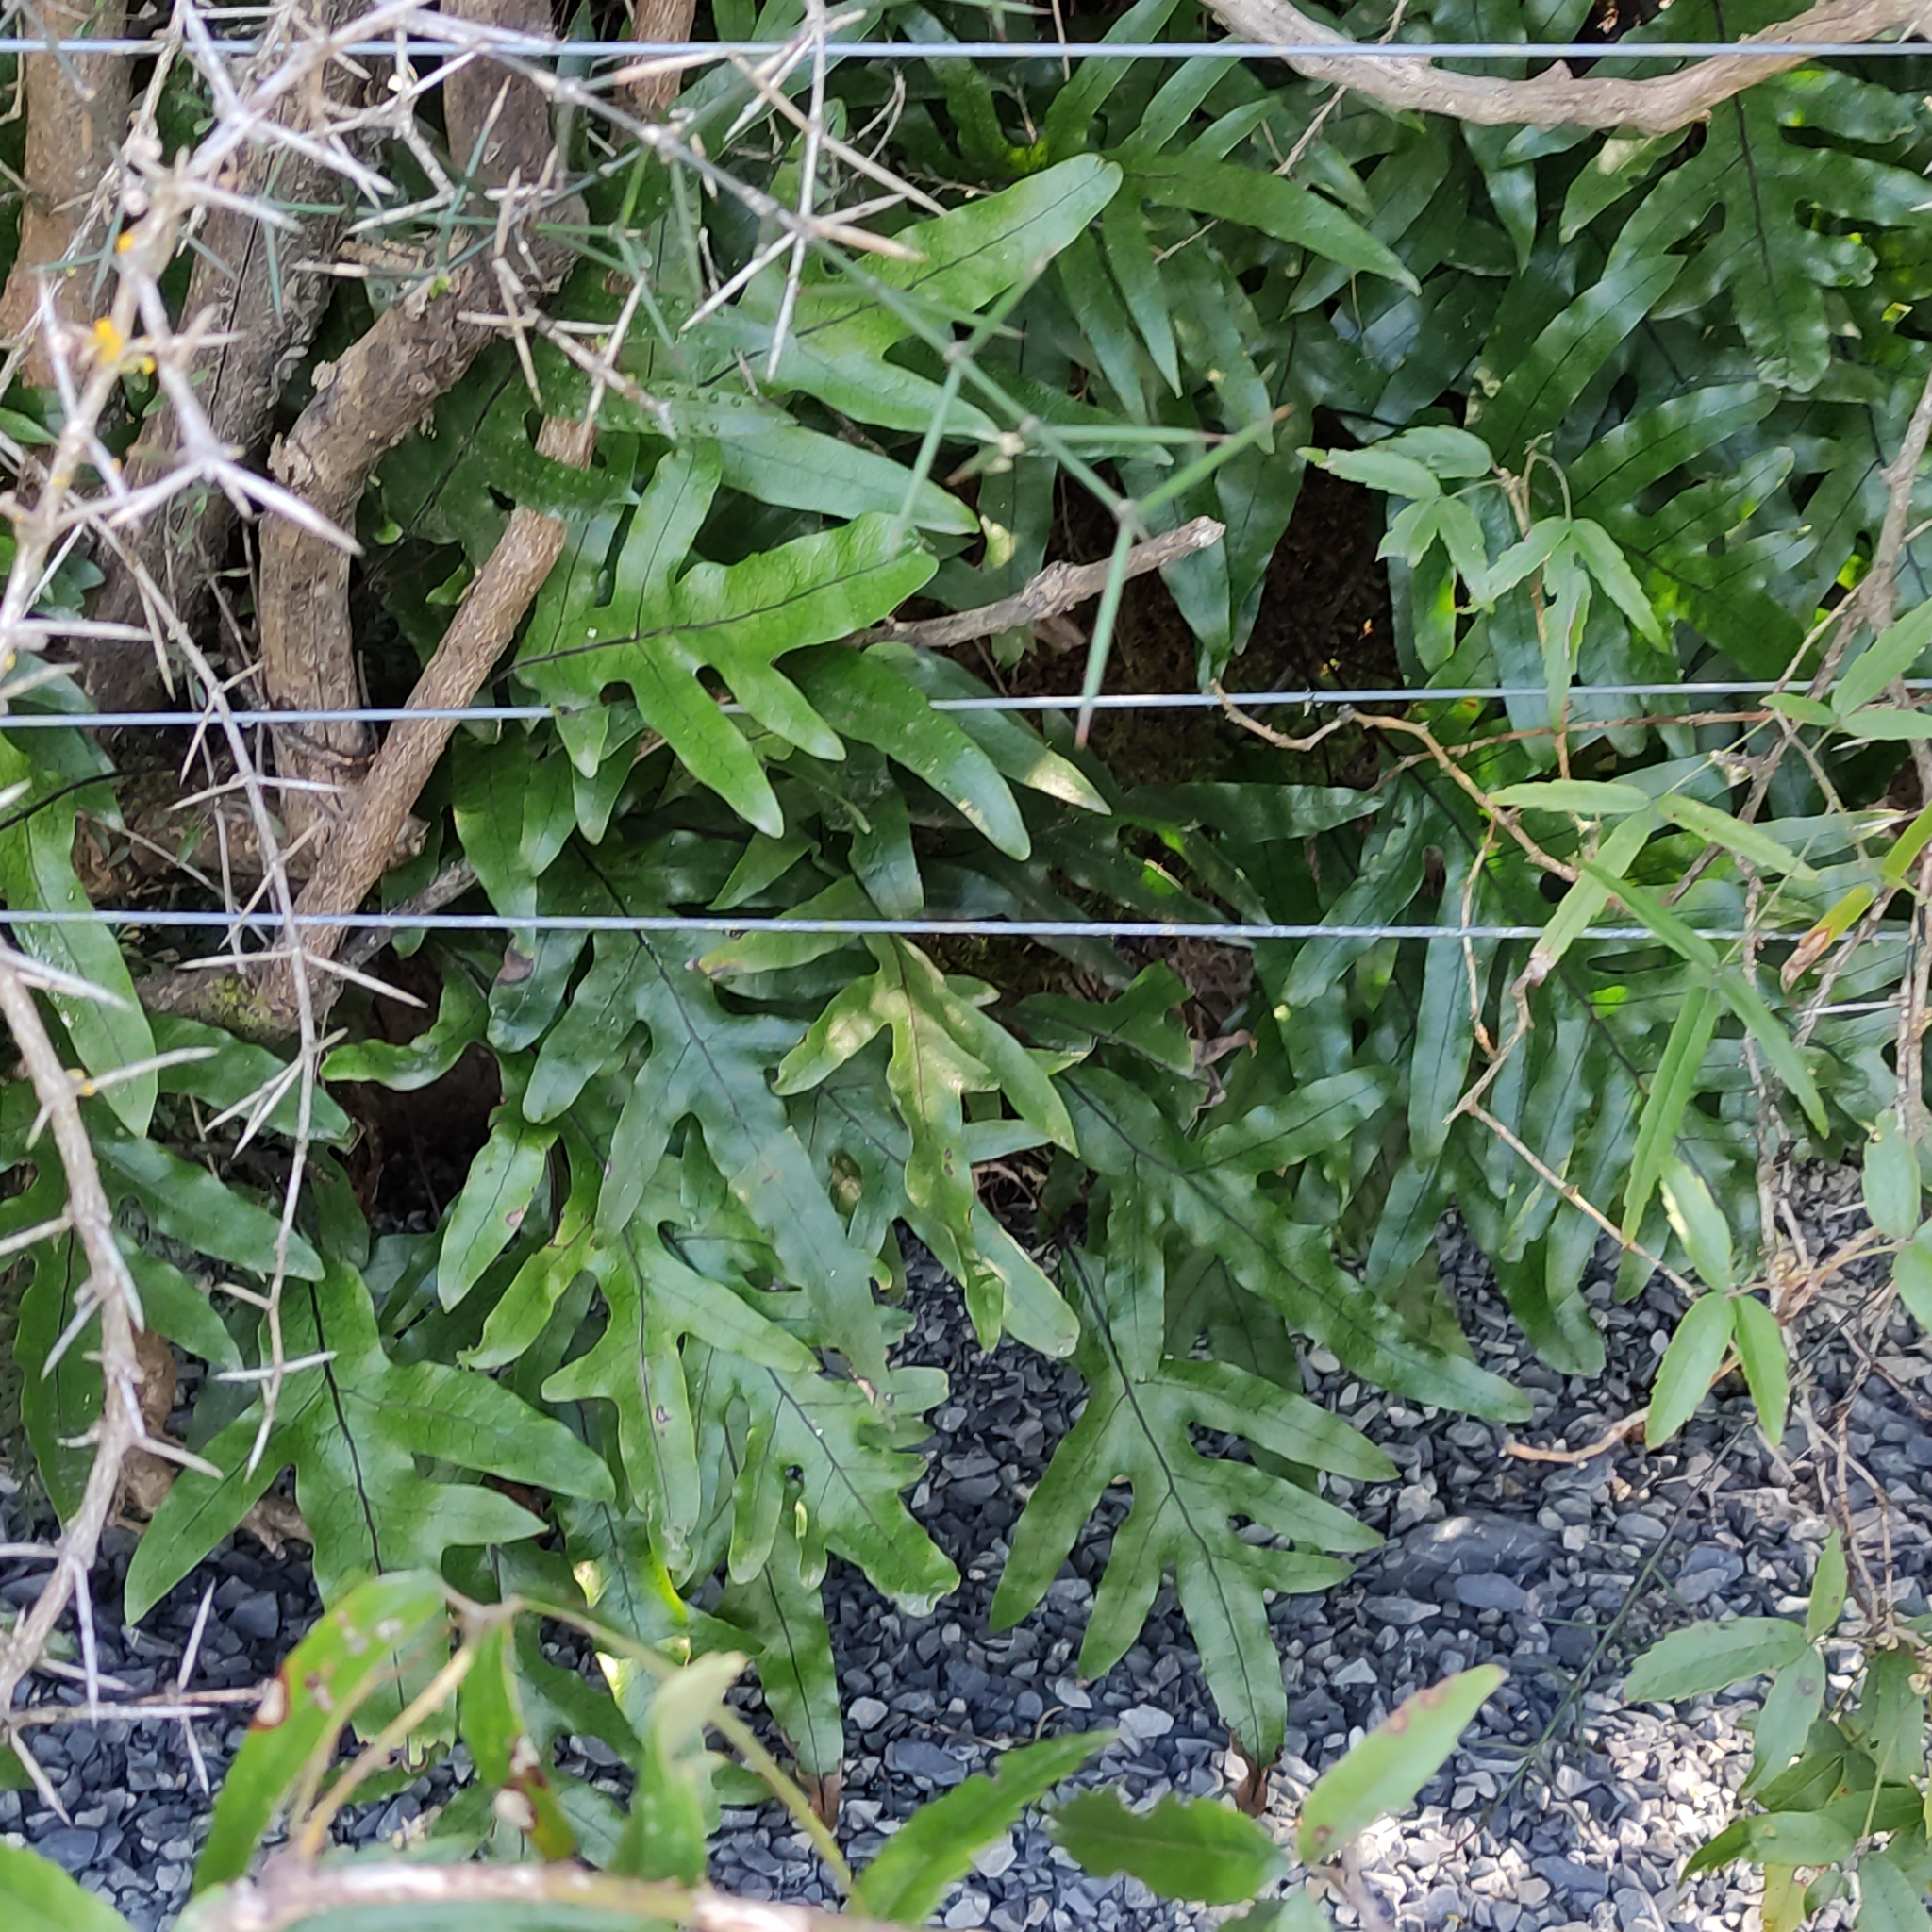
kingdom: Plantae
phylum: Tracheophyta
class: Polypodiopsida
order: Polypodiales
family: Polypodiaceae
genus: Lecanopteris
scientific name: Lecanopteris pustulata
